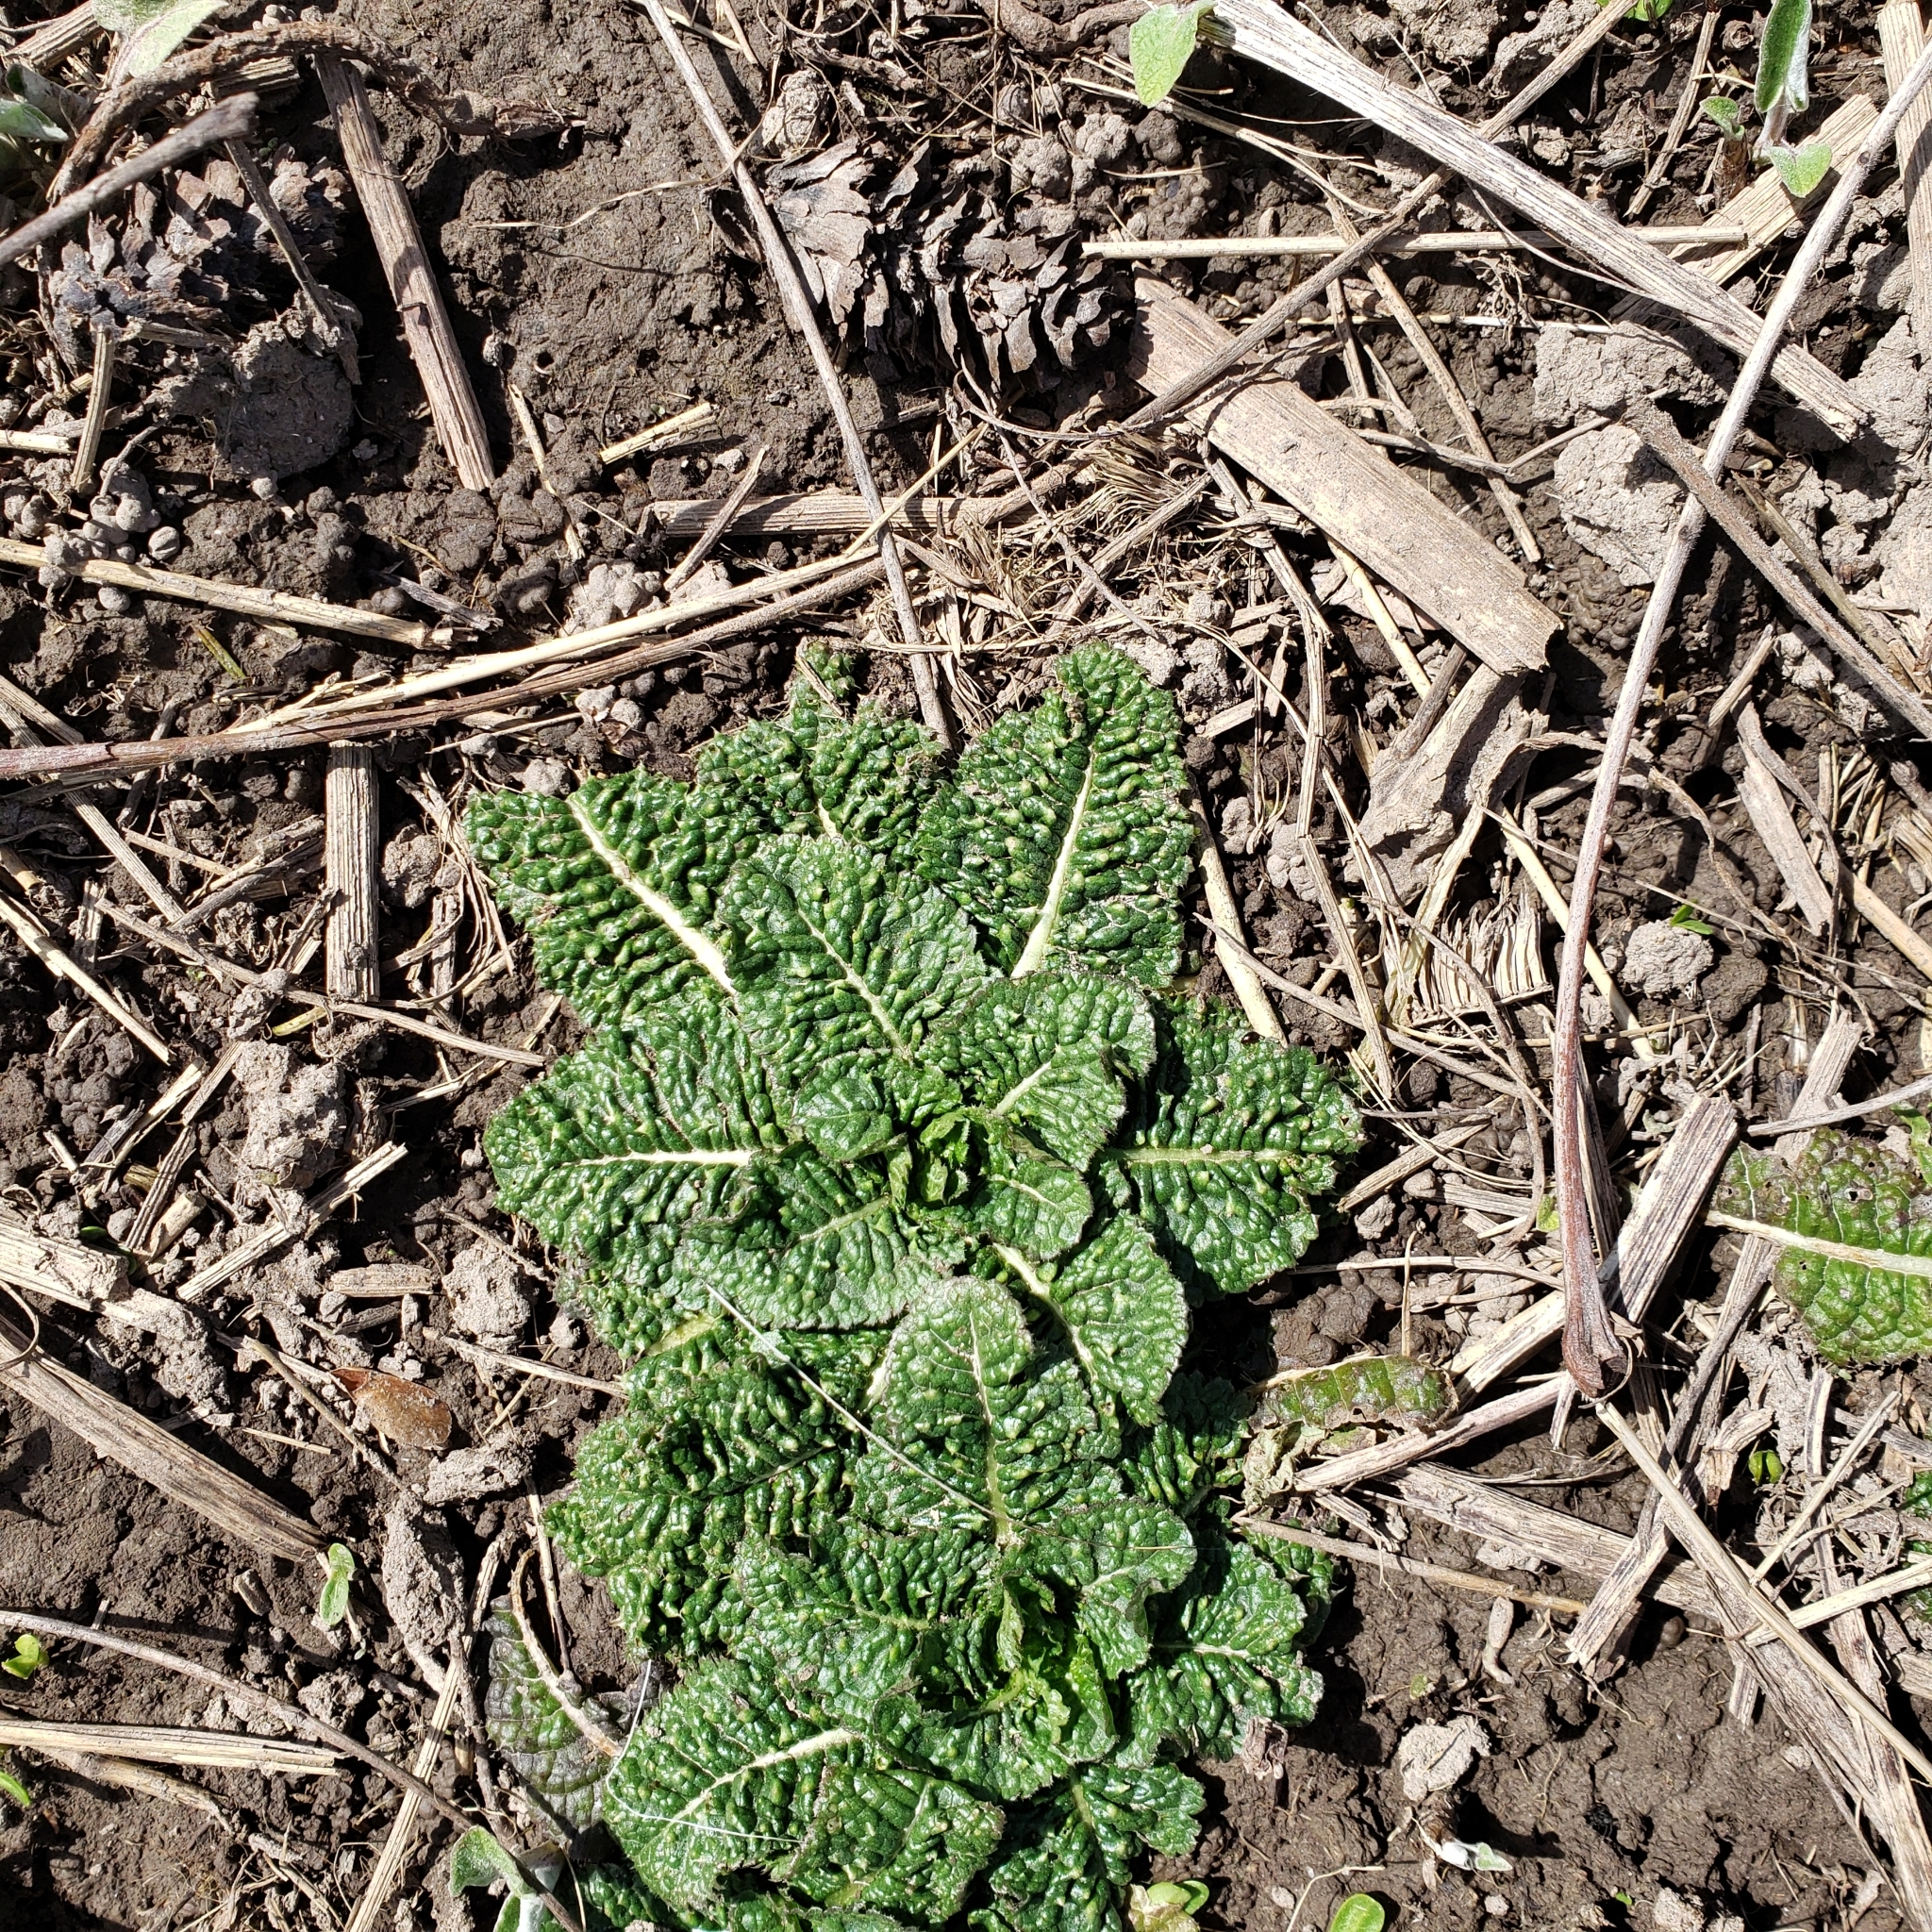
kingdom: Plantae
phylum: Tracheophyta
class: Magnoliopsida
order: Dipsacales
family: Caprifoliaceae
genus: Dipsacus
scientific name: Dipsacus fullonum
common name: Teasel
